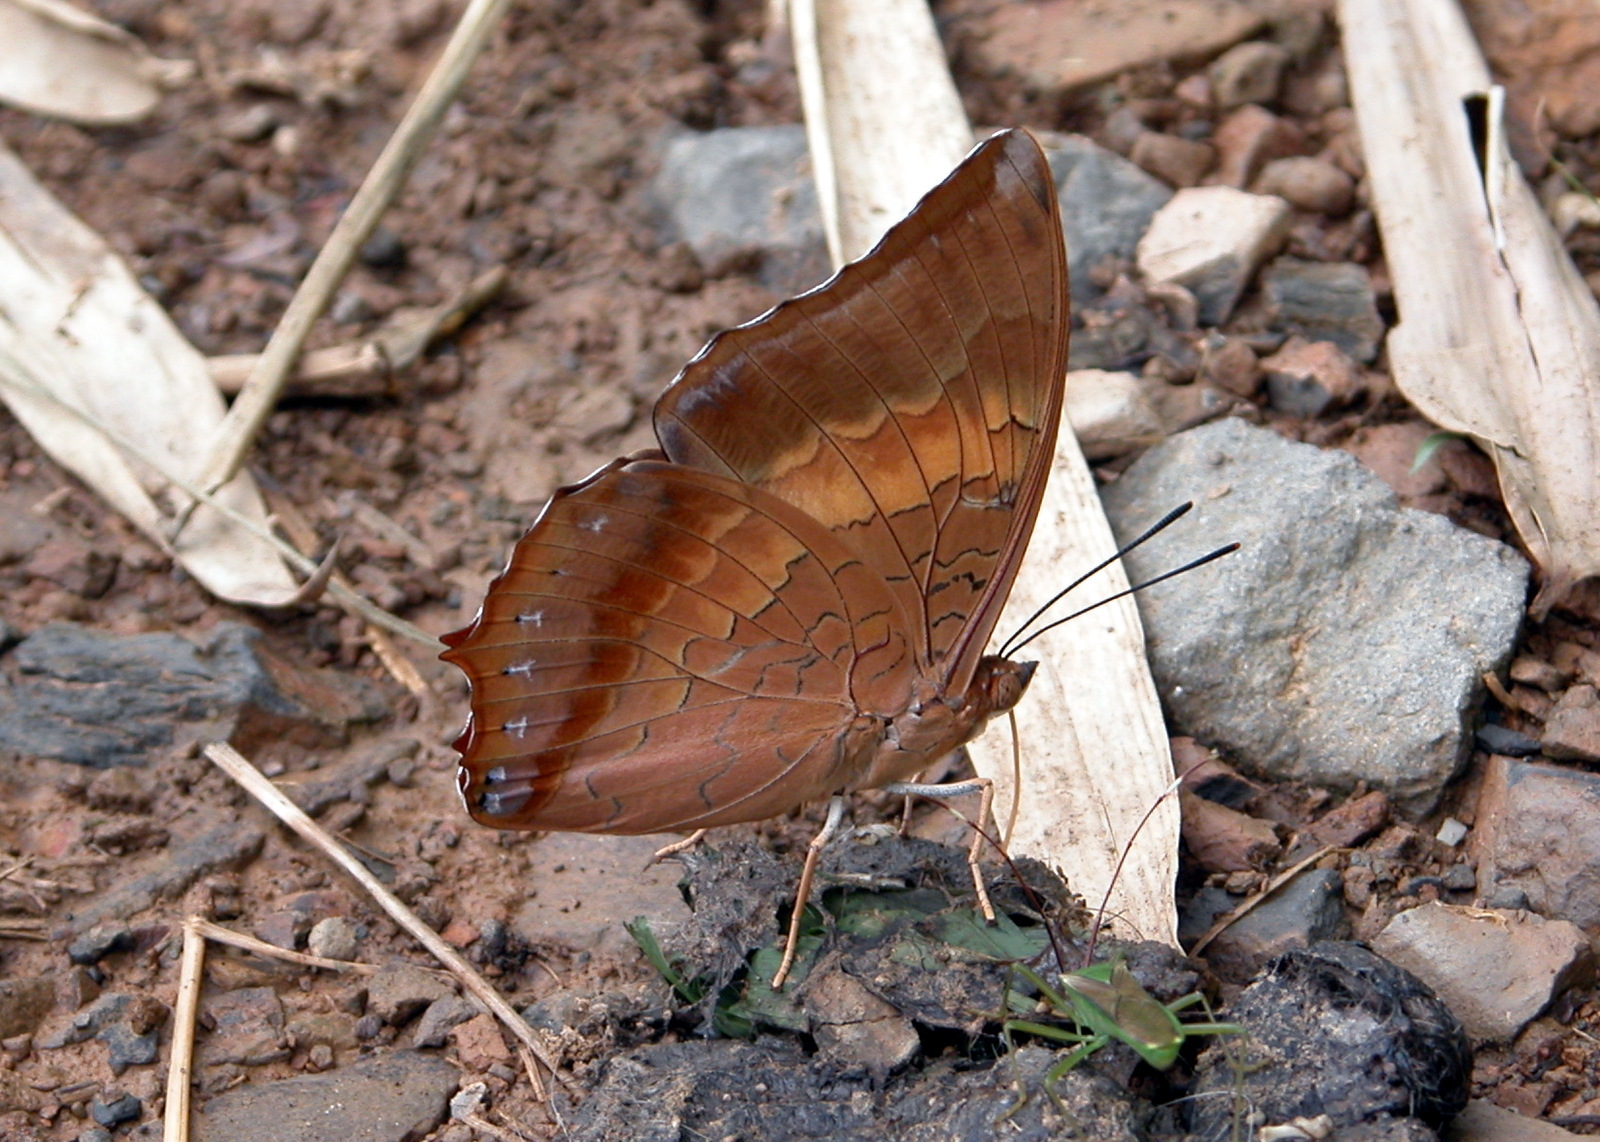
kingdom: Animalia
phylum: Arthropoda
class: Insecta
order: Lepidoptera
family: Nymphalidae
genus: Charaxes
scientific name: Charaxes bernardus
